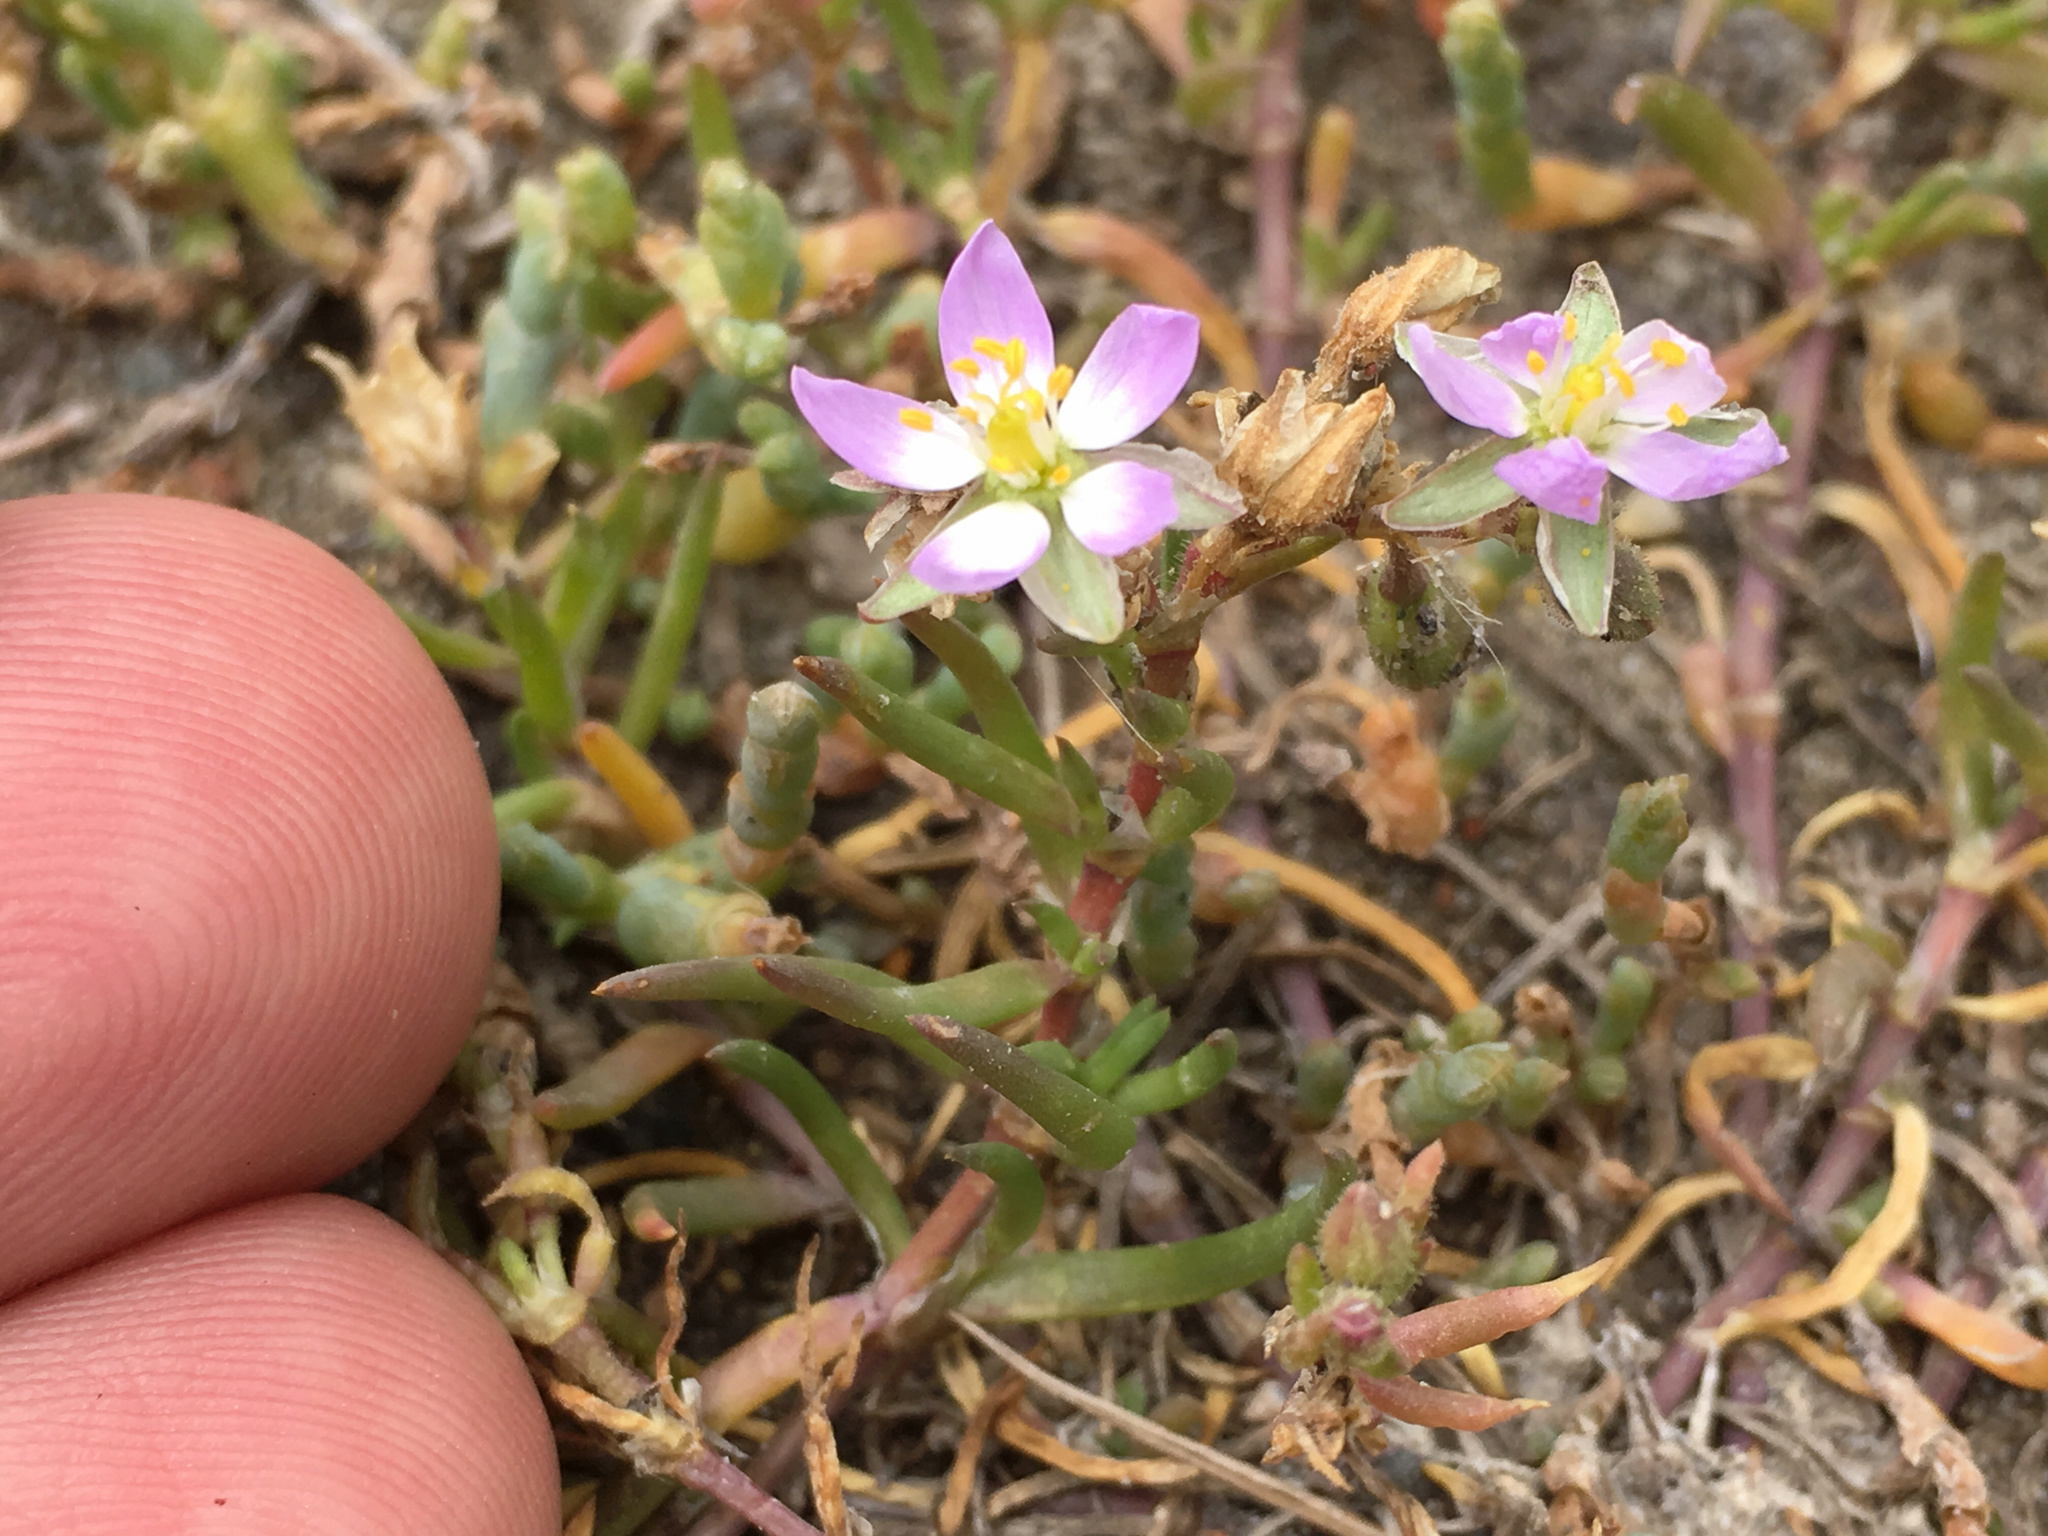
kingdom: Plantae
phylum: Tracheophyta
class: Magnoliopsida
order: Caryophyllales
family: Caryophyllaceae
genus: Spergularia
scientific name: Spergularia marina
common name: Lesser sea-spurrey
